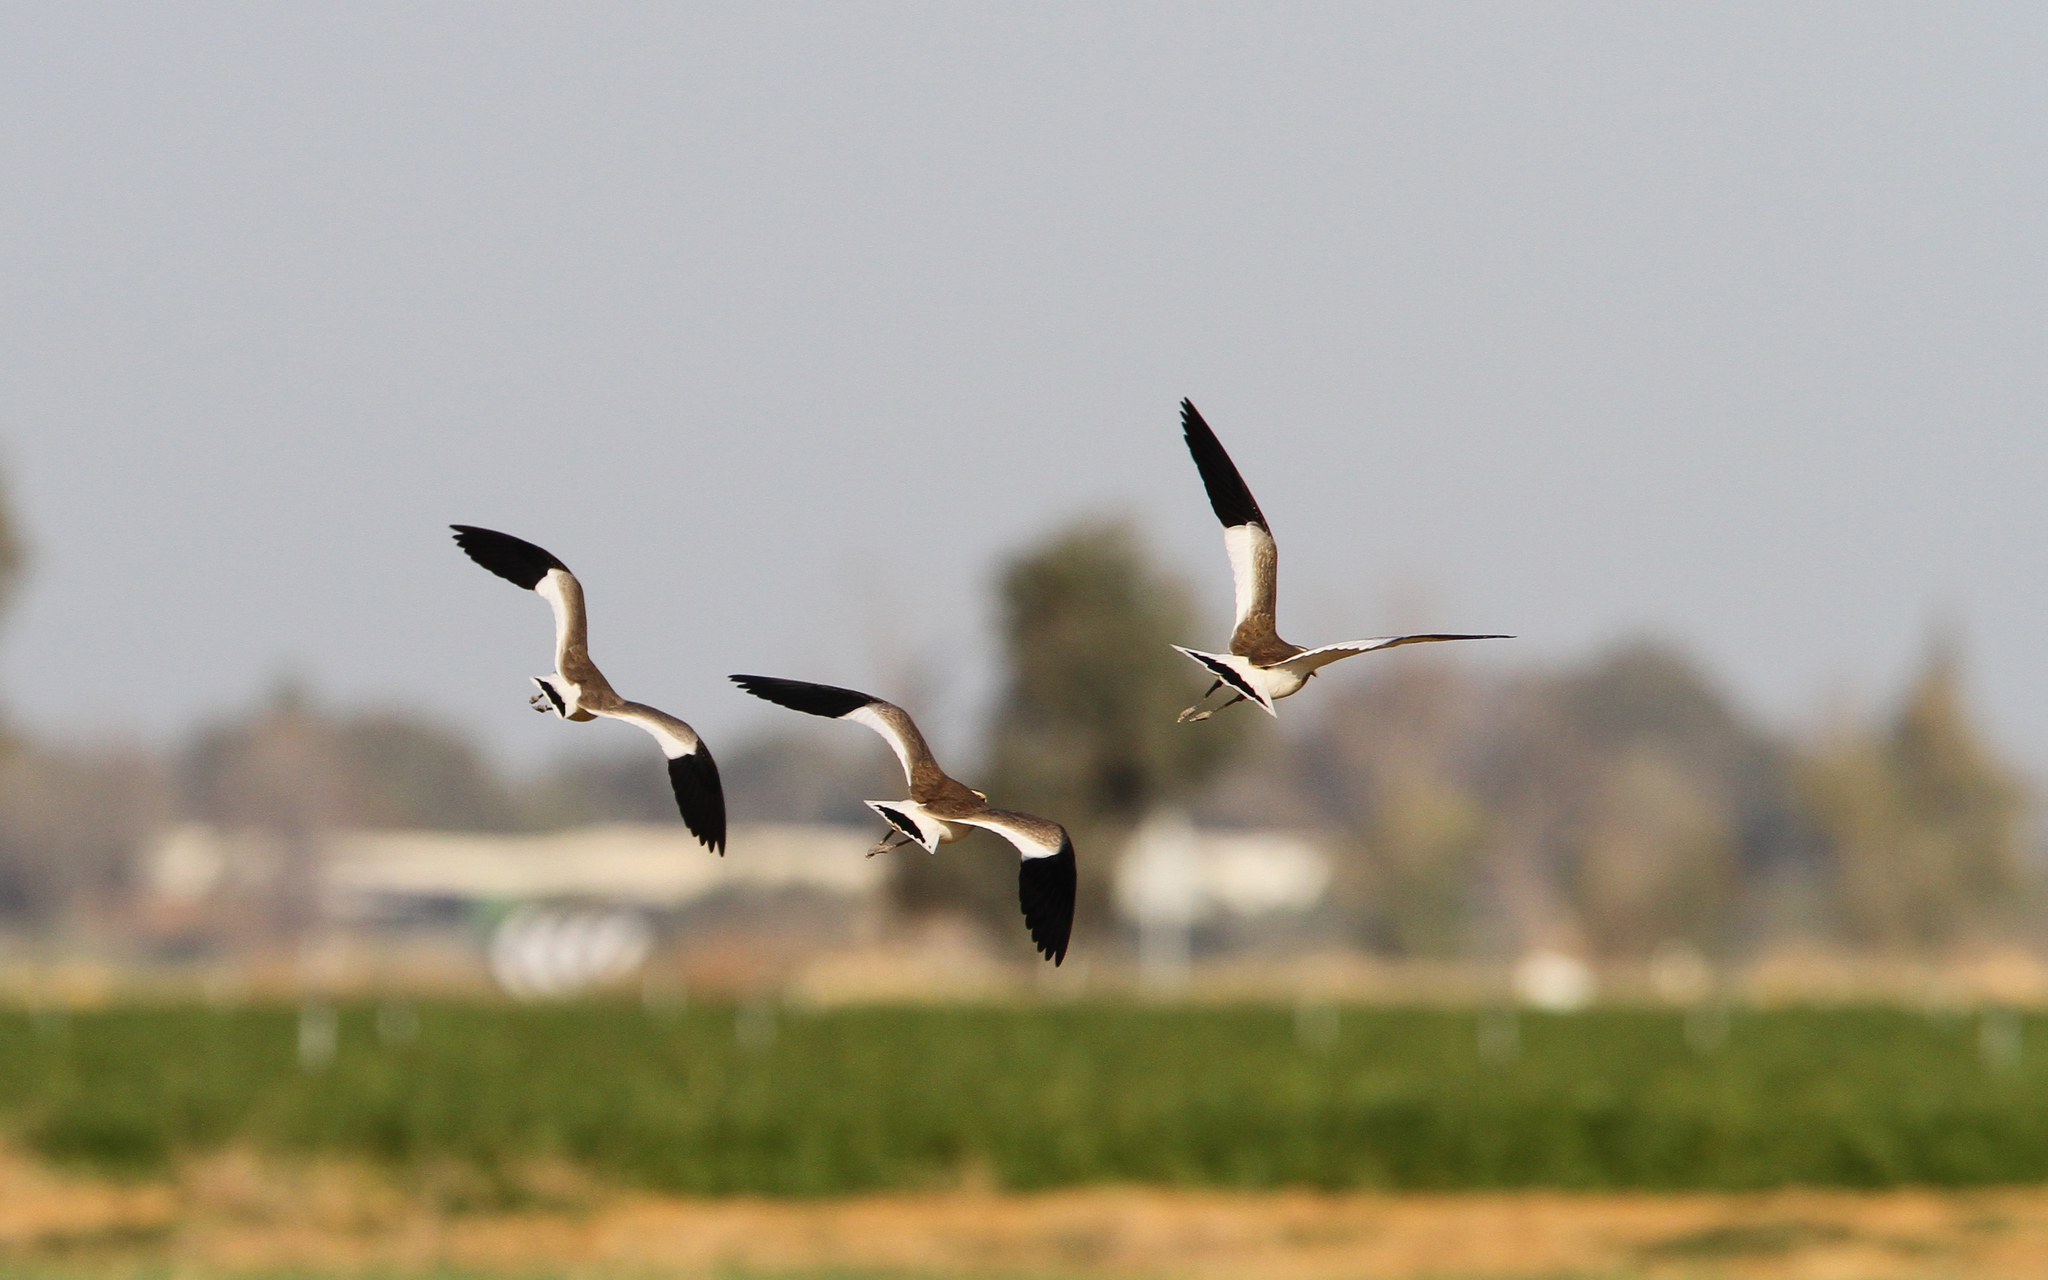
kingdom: Animalia
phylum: Chordata
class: Aves
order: Charadriiformes
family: Charadriidae
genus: Vanellus
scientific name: Vanellus gregarius
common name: Sociable lapwing
